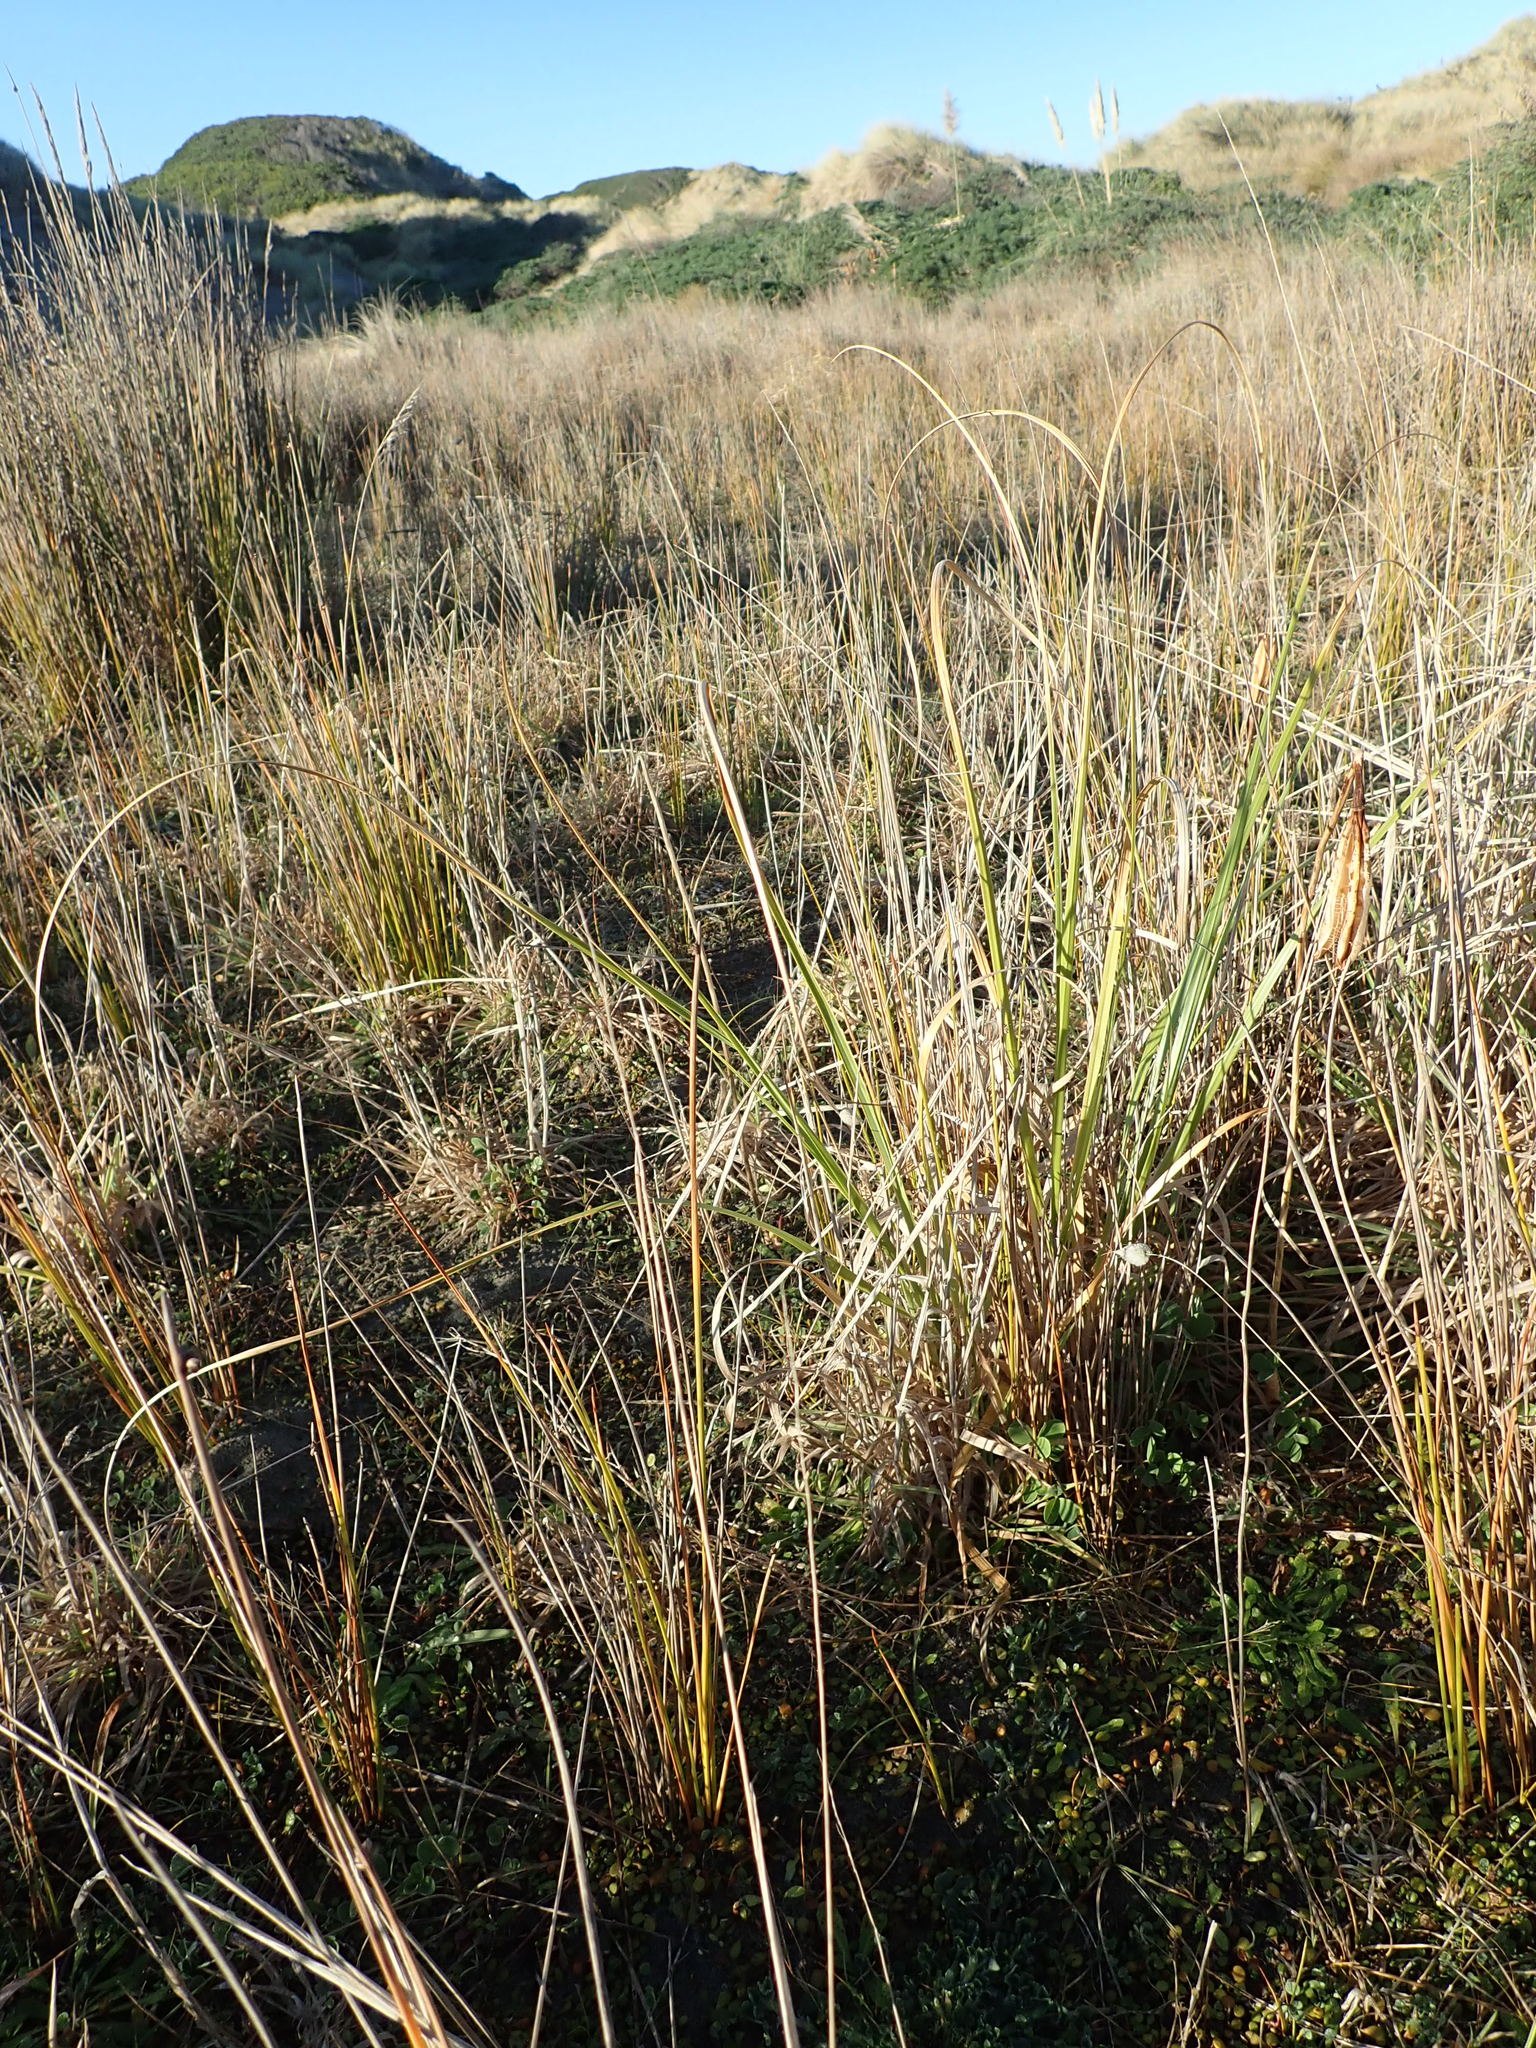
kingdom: Plantae
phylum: Tracheophyta
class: Liliopsida
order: Poales
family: Poaceae
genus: Cortaderia
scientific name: Cortaderia selloana
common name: Uruguayan pampas grass
